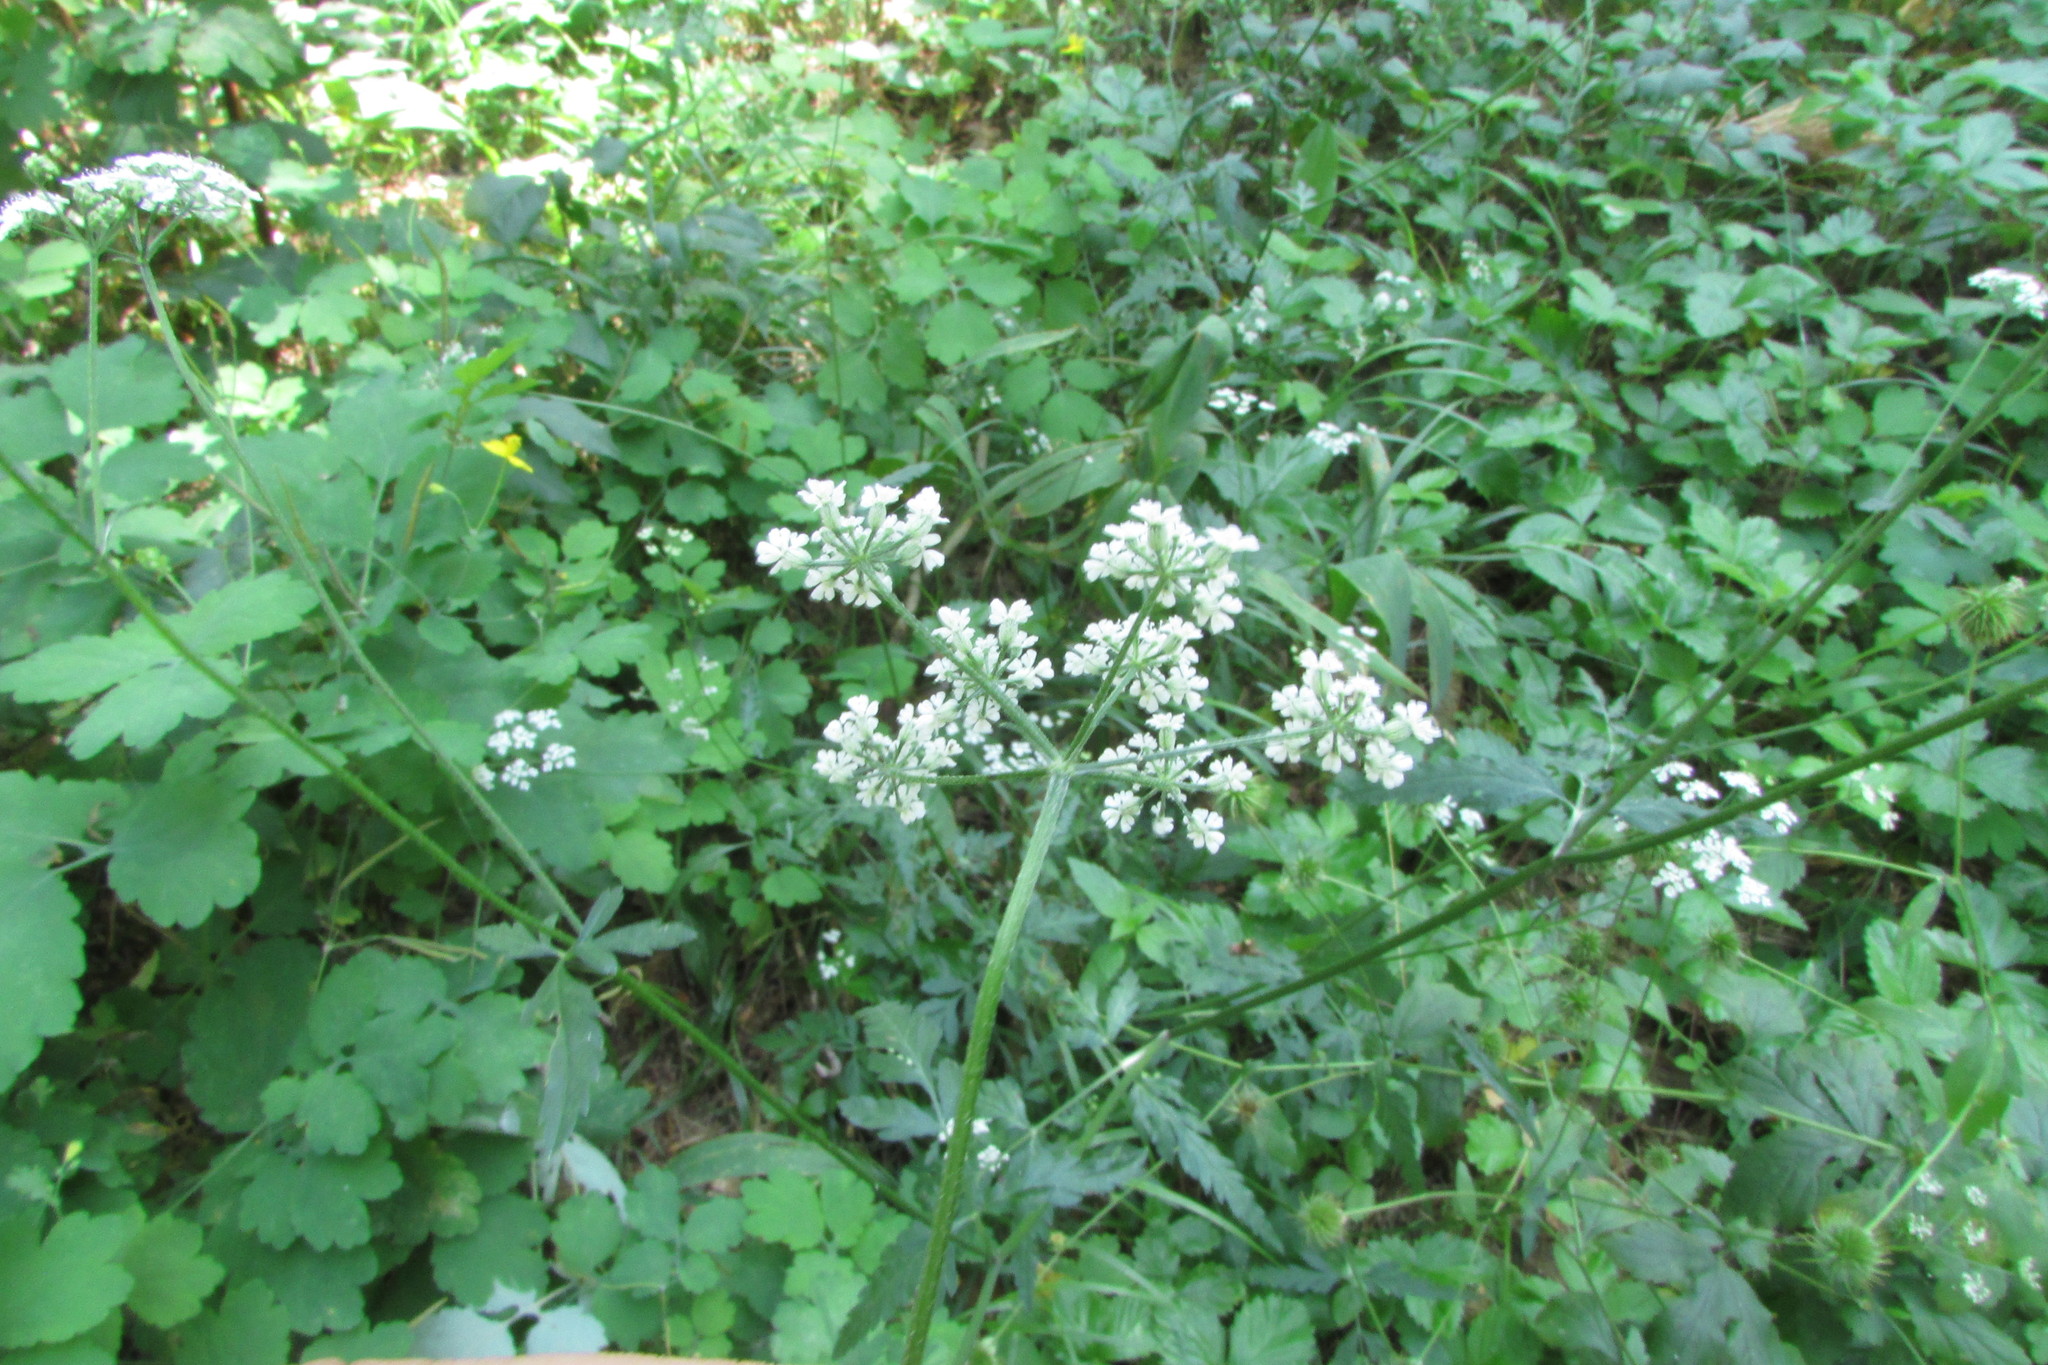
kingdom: Plantae
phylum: Tracheophyta
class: Magnoliopsida
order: Apiales
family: Apiaceae
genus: Torilis
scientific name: Torilis japonica
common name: Upright hedge-parsley
